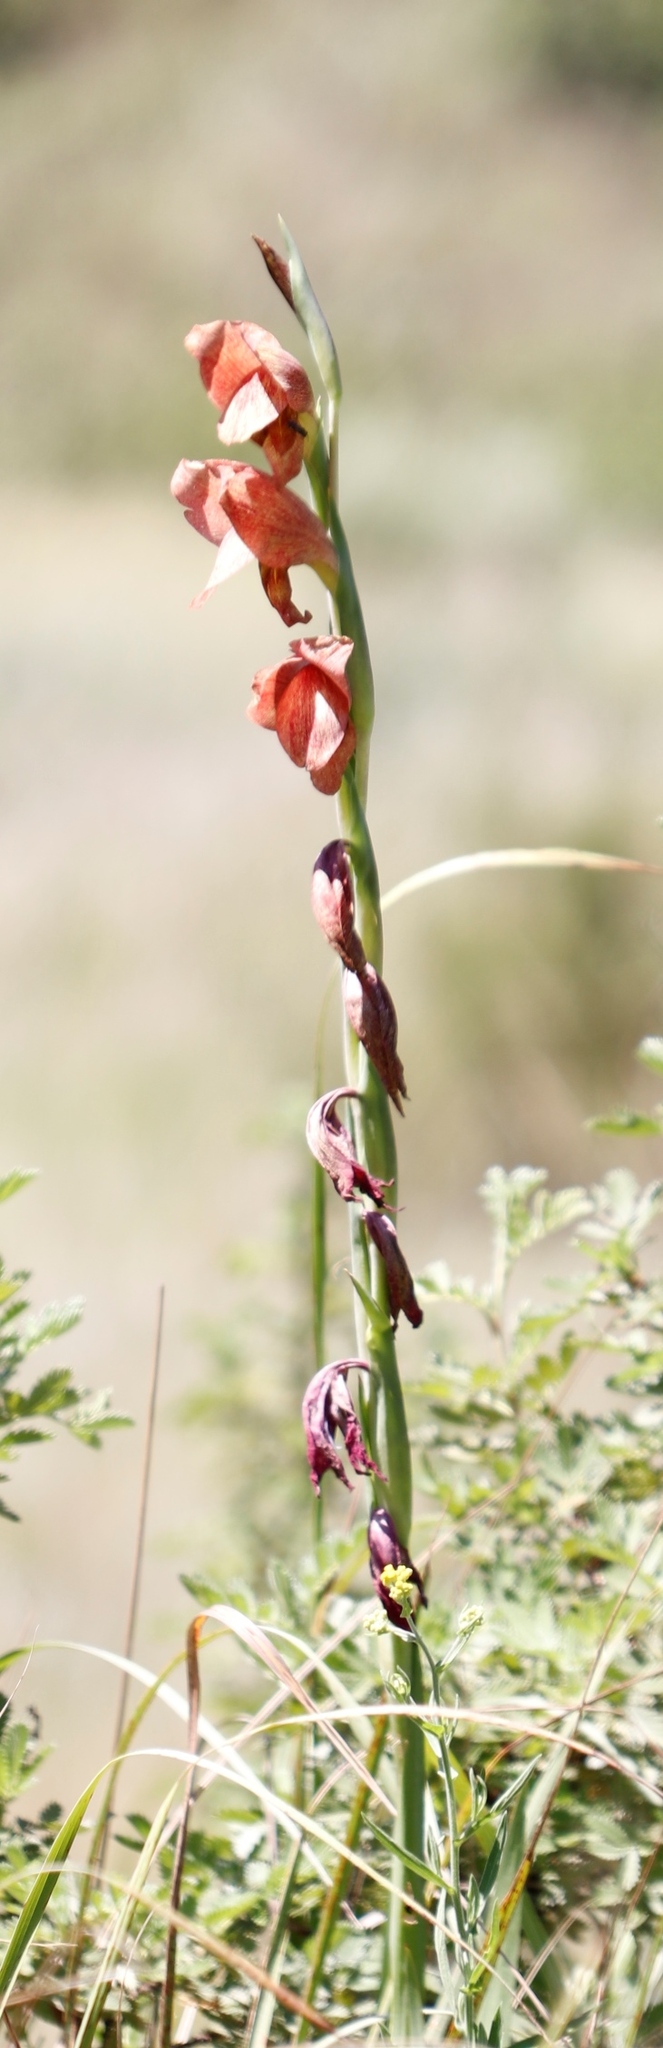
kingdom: Plantae
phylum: Tracheophyta
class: Liliopsida
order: Asparagales
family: Iridaceae
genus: Gladiolus
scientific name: Gladiolus dalenii
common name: Cornflag
